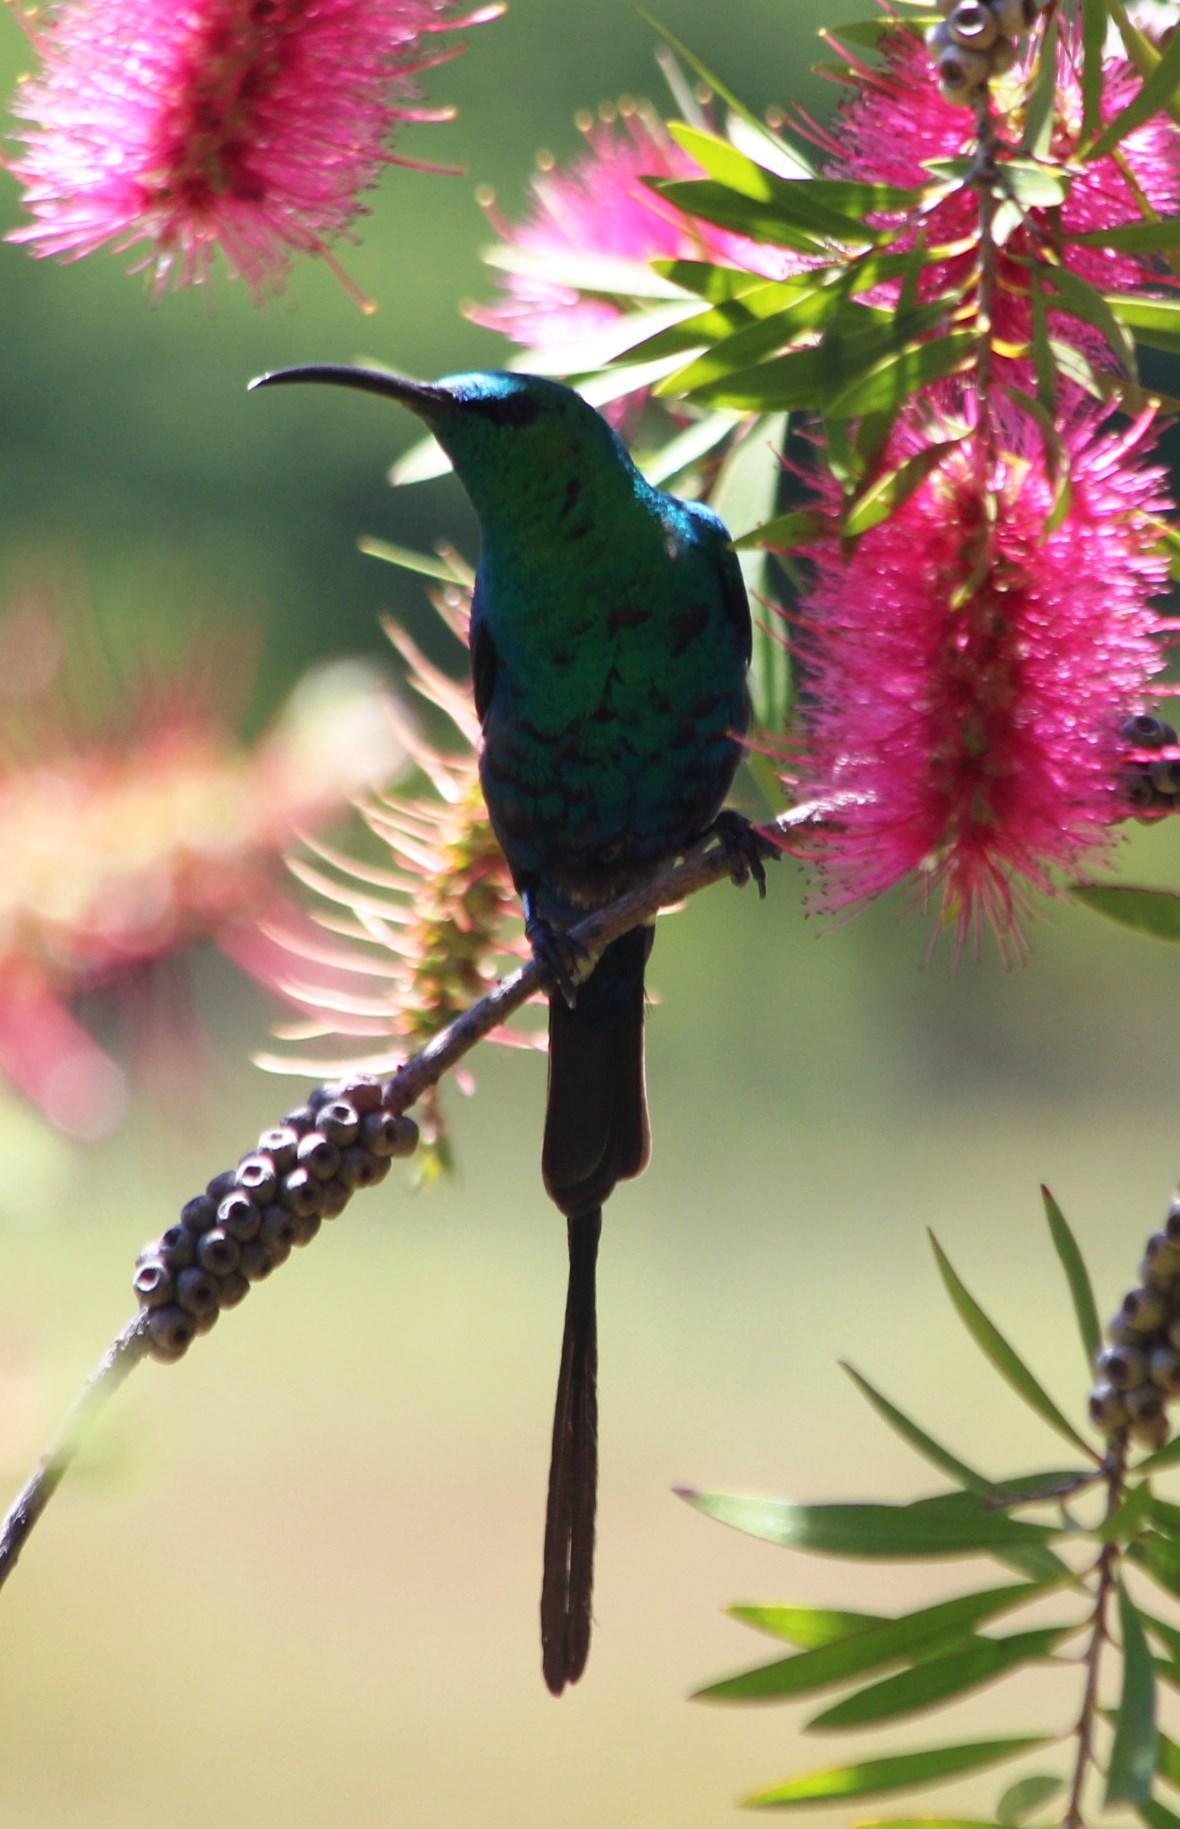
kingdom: Animalia
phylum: Chordata
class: Aves
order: Passeriformes
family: Nectariniidae
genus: Nectarinia
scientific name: Nectarinia famosa
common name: Malachite sunbird
